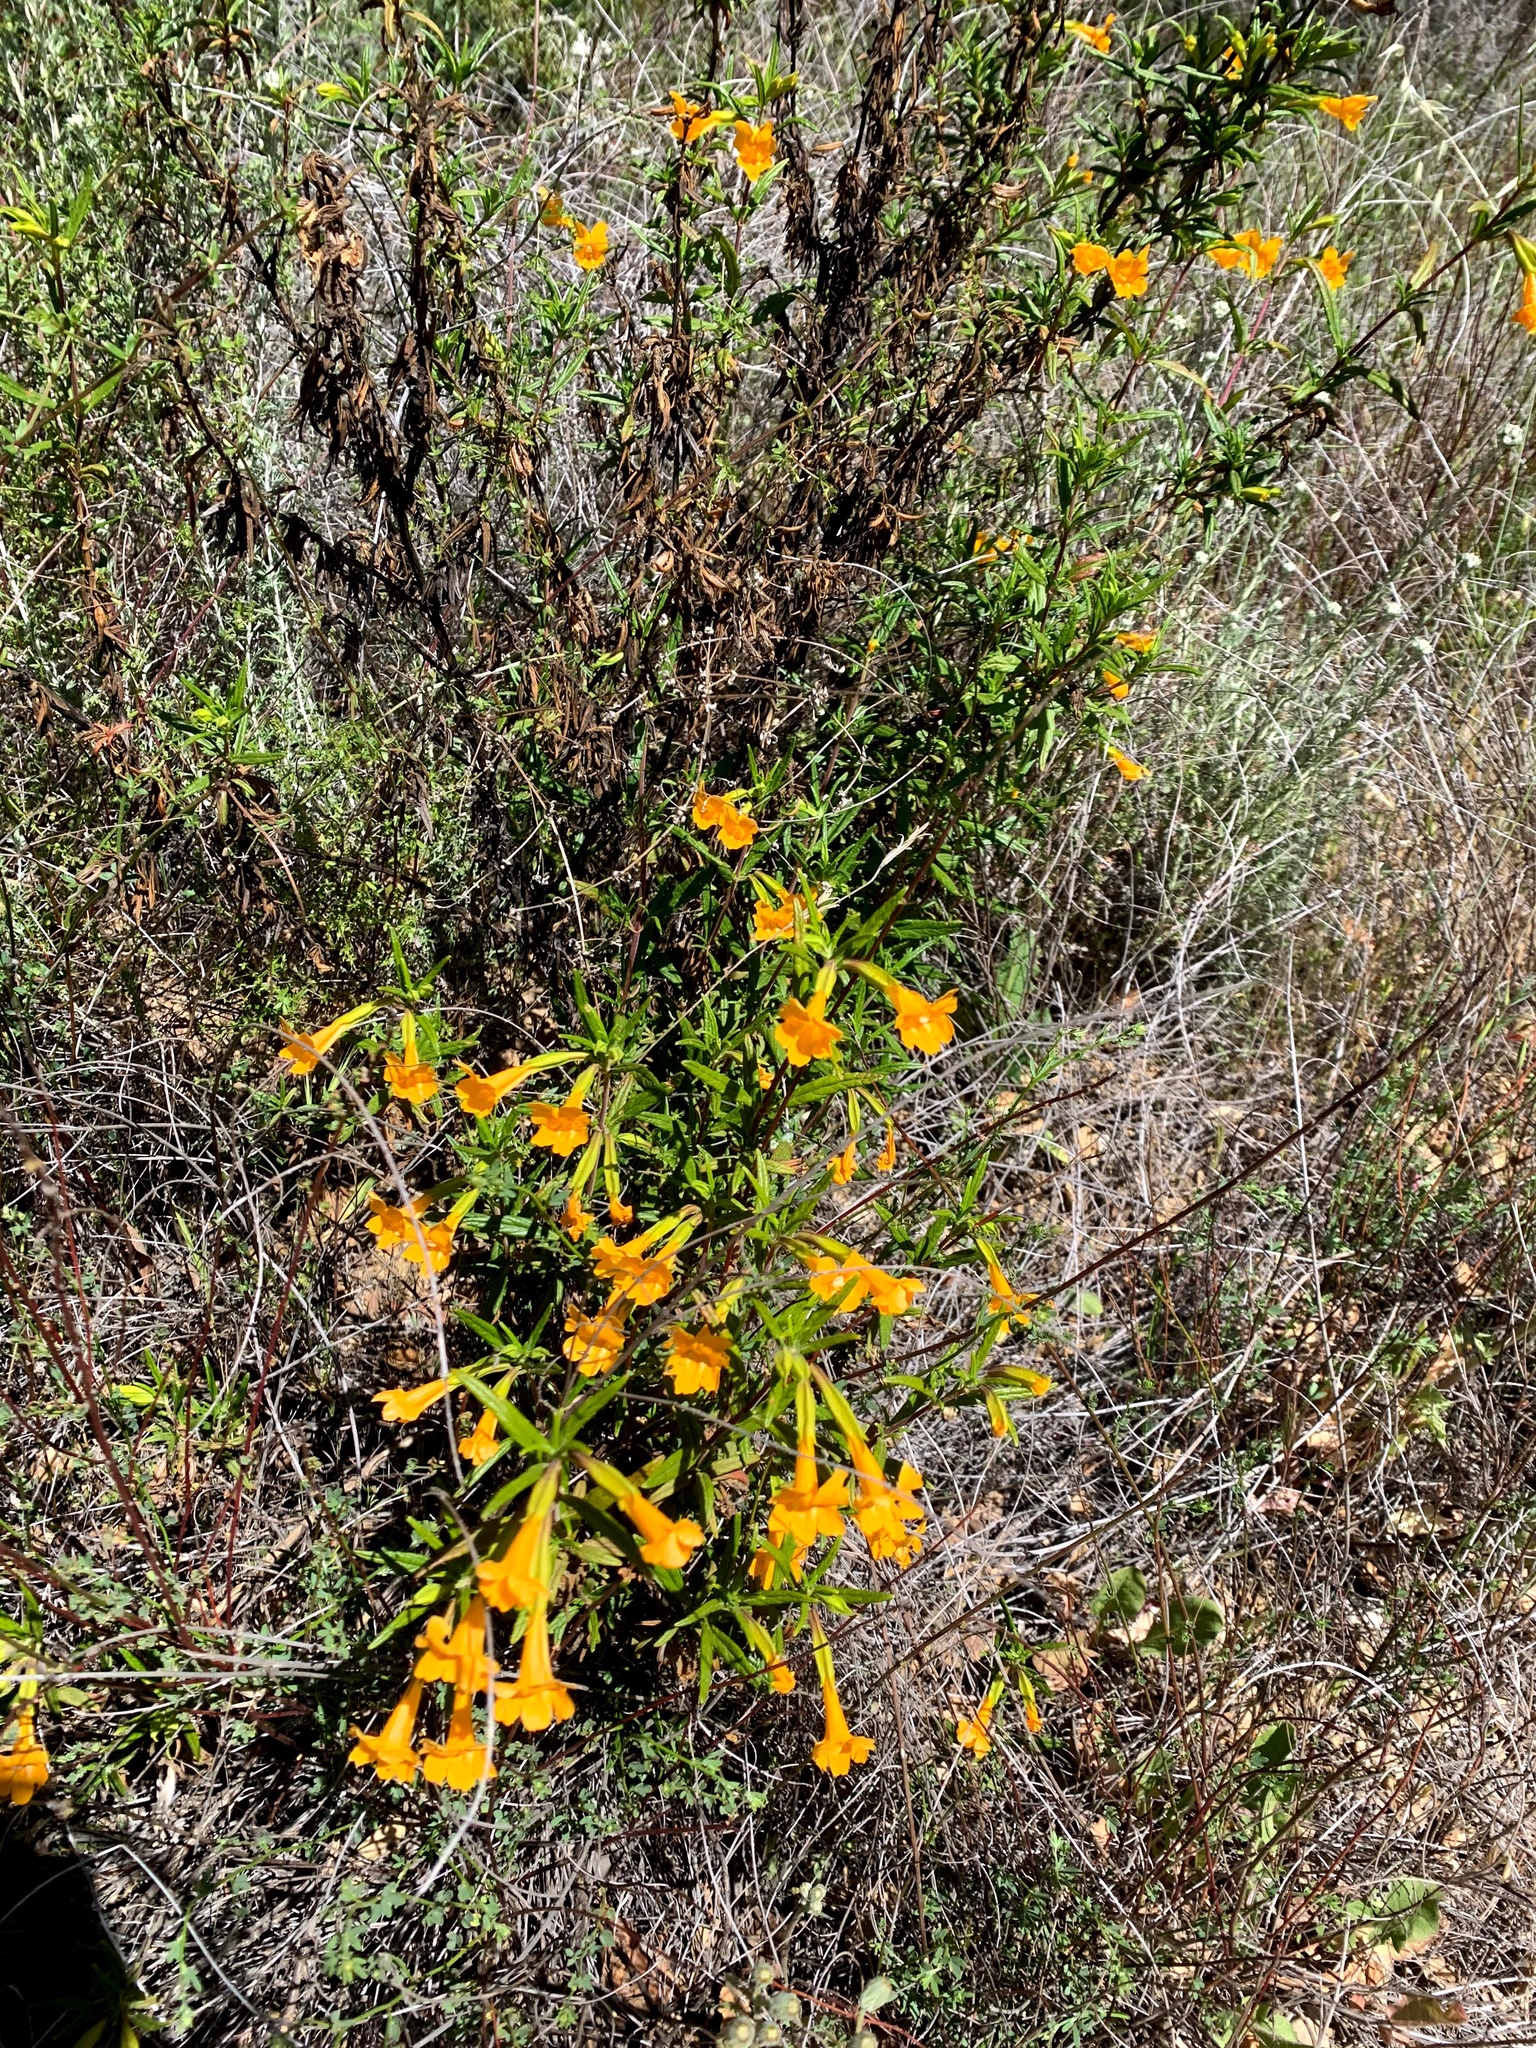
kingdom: Plantae
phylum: Tracheophyta
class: Magnoliopsida
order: Lamiales
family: Phrymaceae
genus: Diplacus
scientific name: Diplacus aurantiacus
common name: Bush monkey-flower
